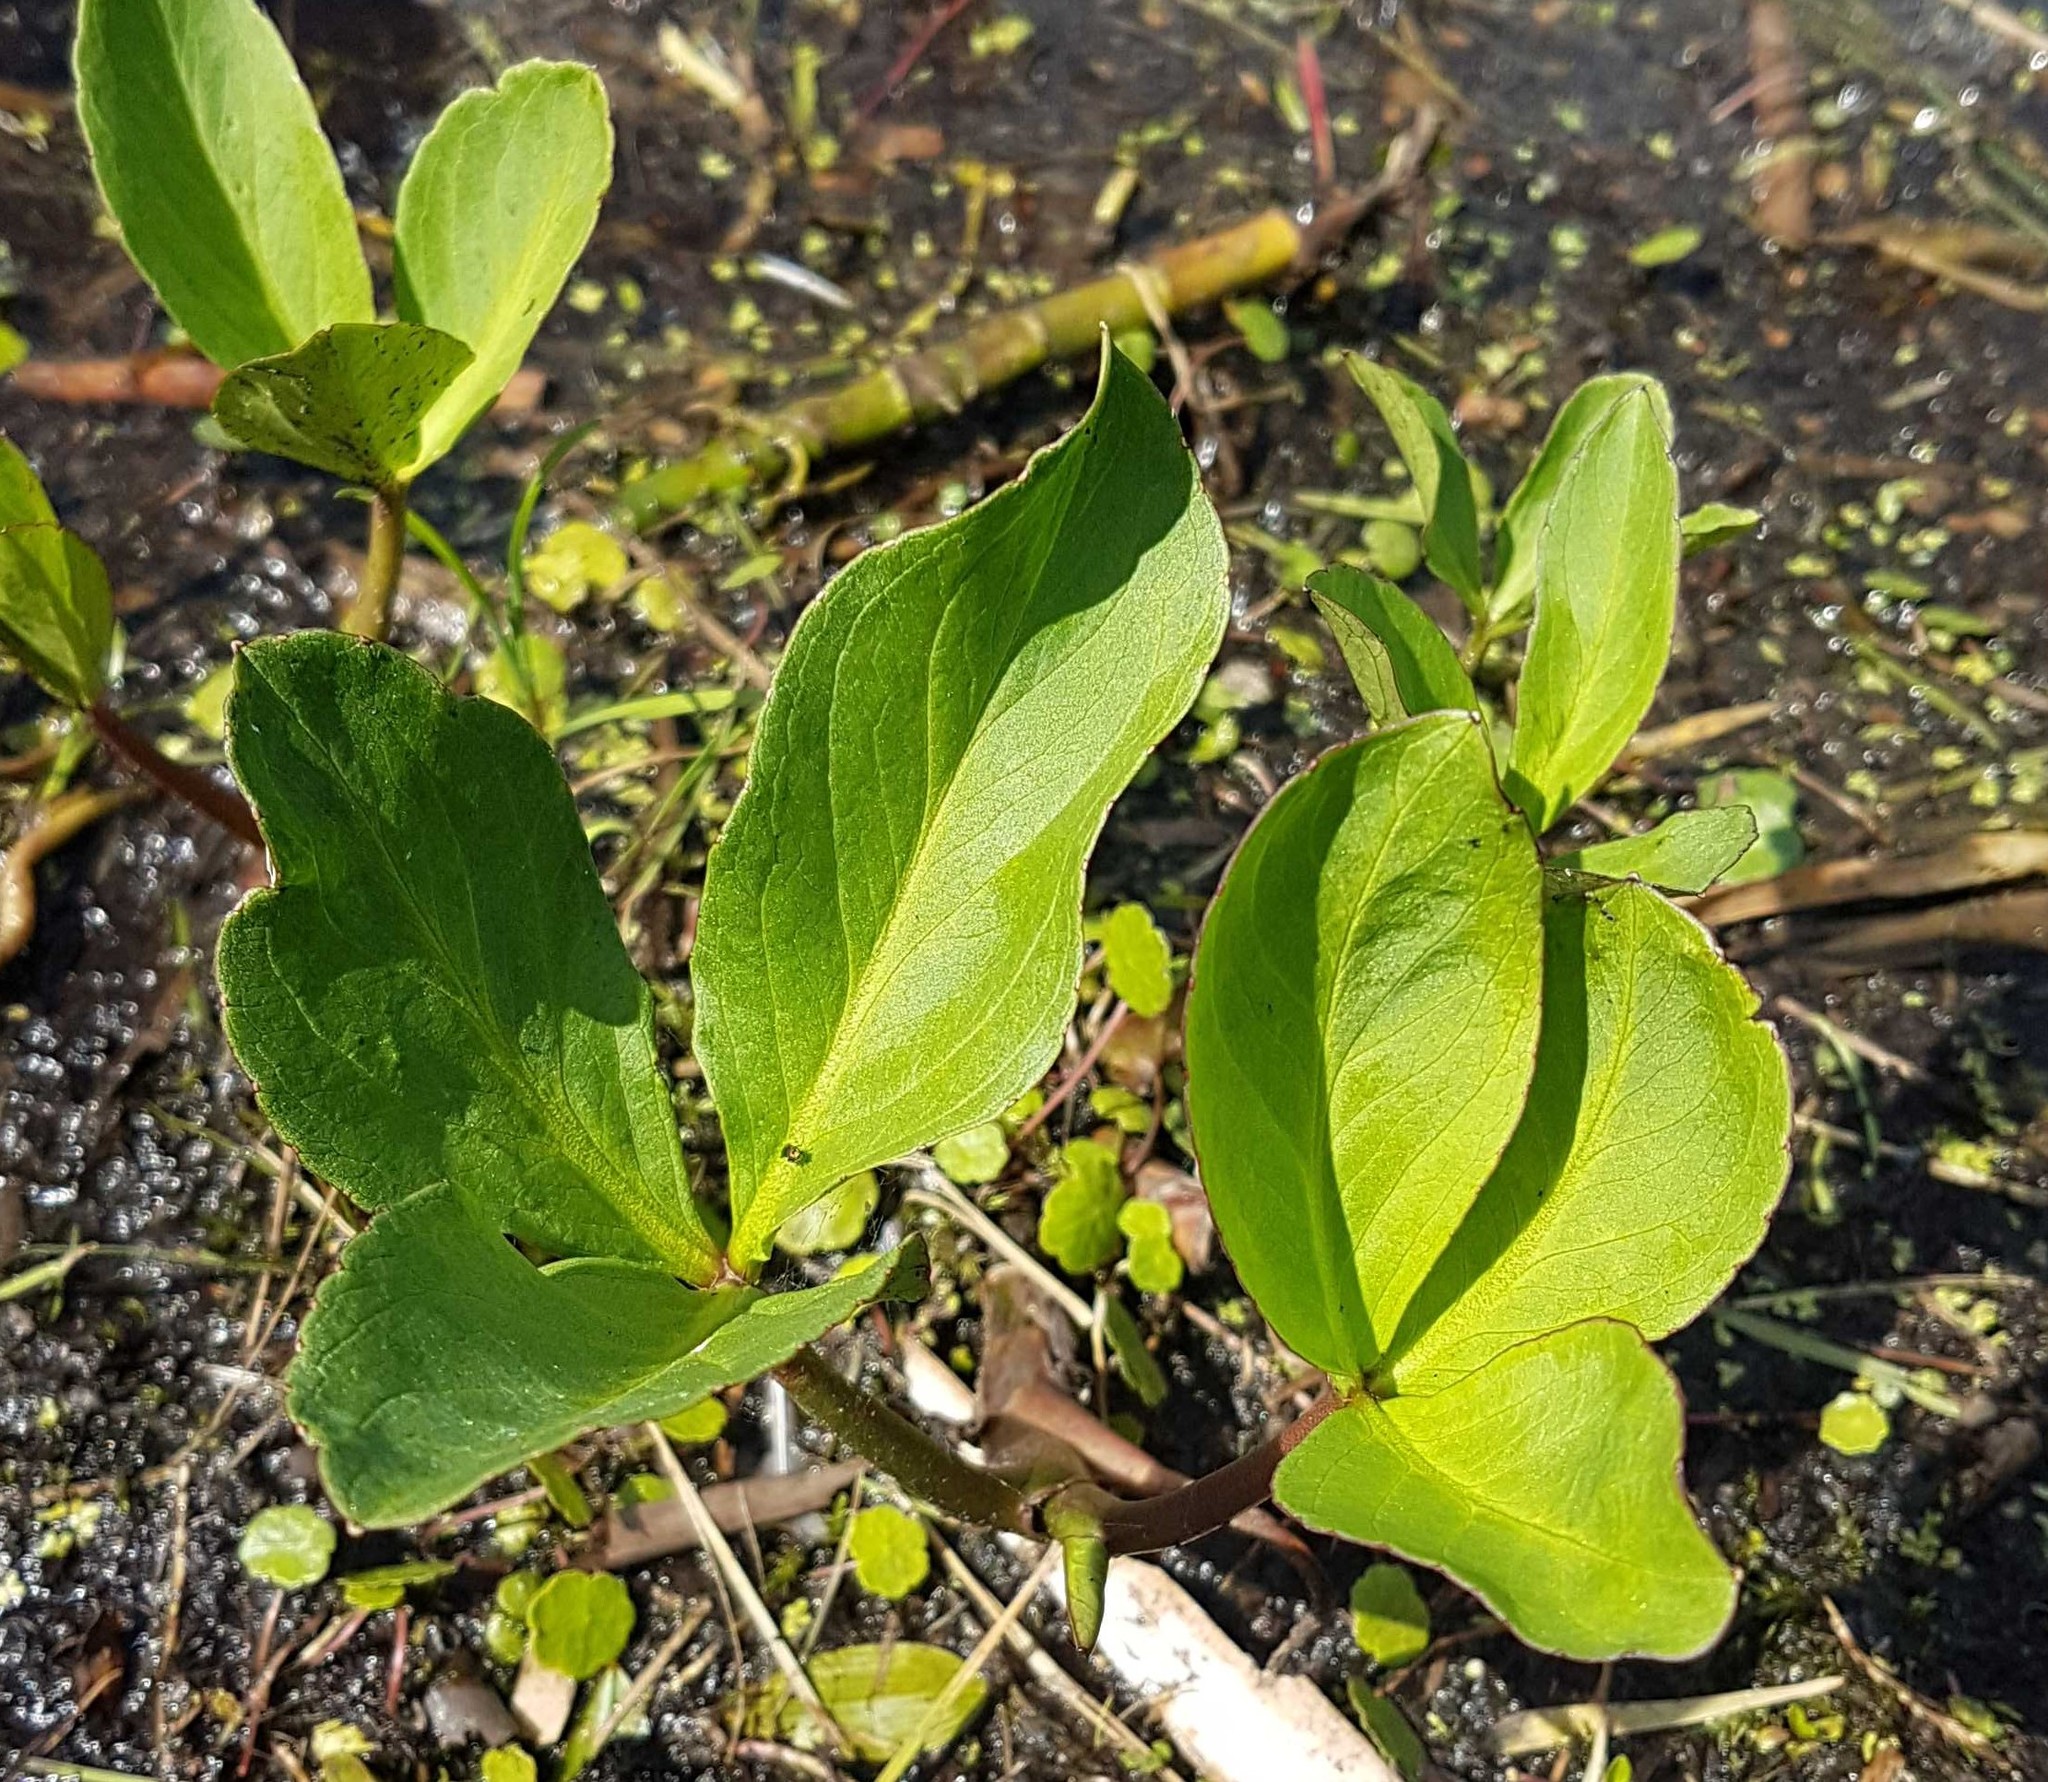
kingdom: Plantae
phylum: Tracheophyta
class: Magnoliopsida
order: Asterales
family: Menyanthaceae
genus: Menyanthes
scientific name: Menyanthes trifoliata
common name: Bogbean
